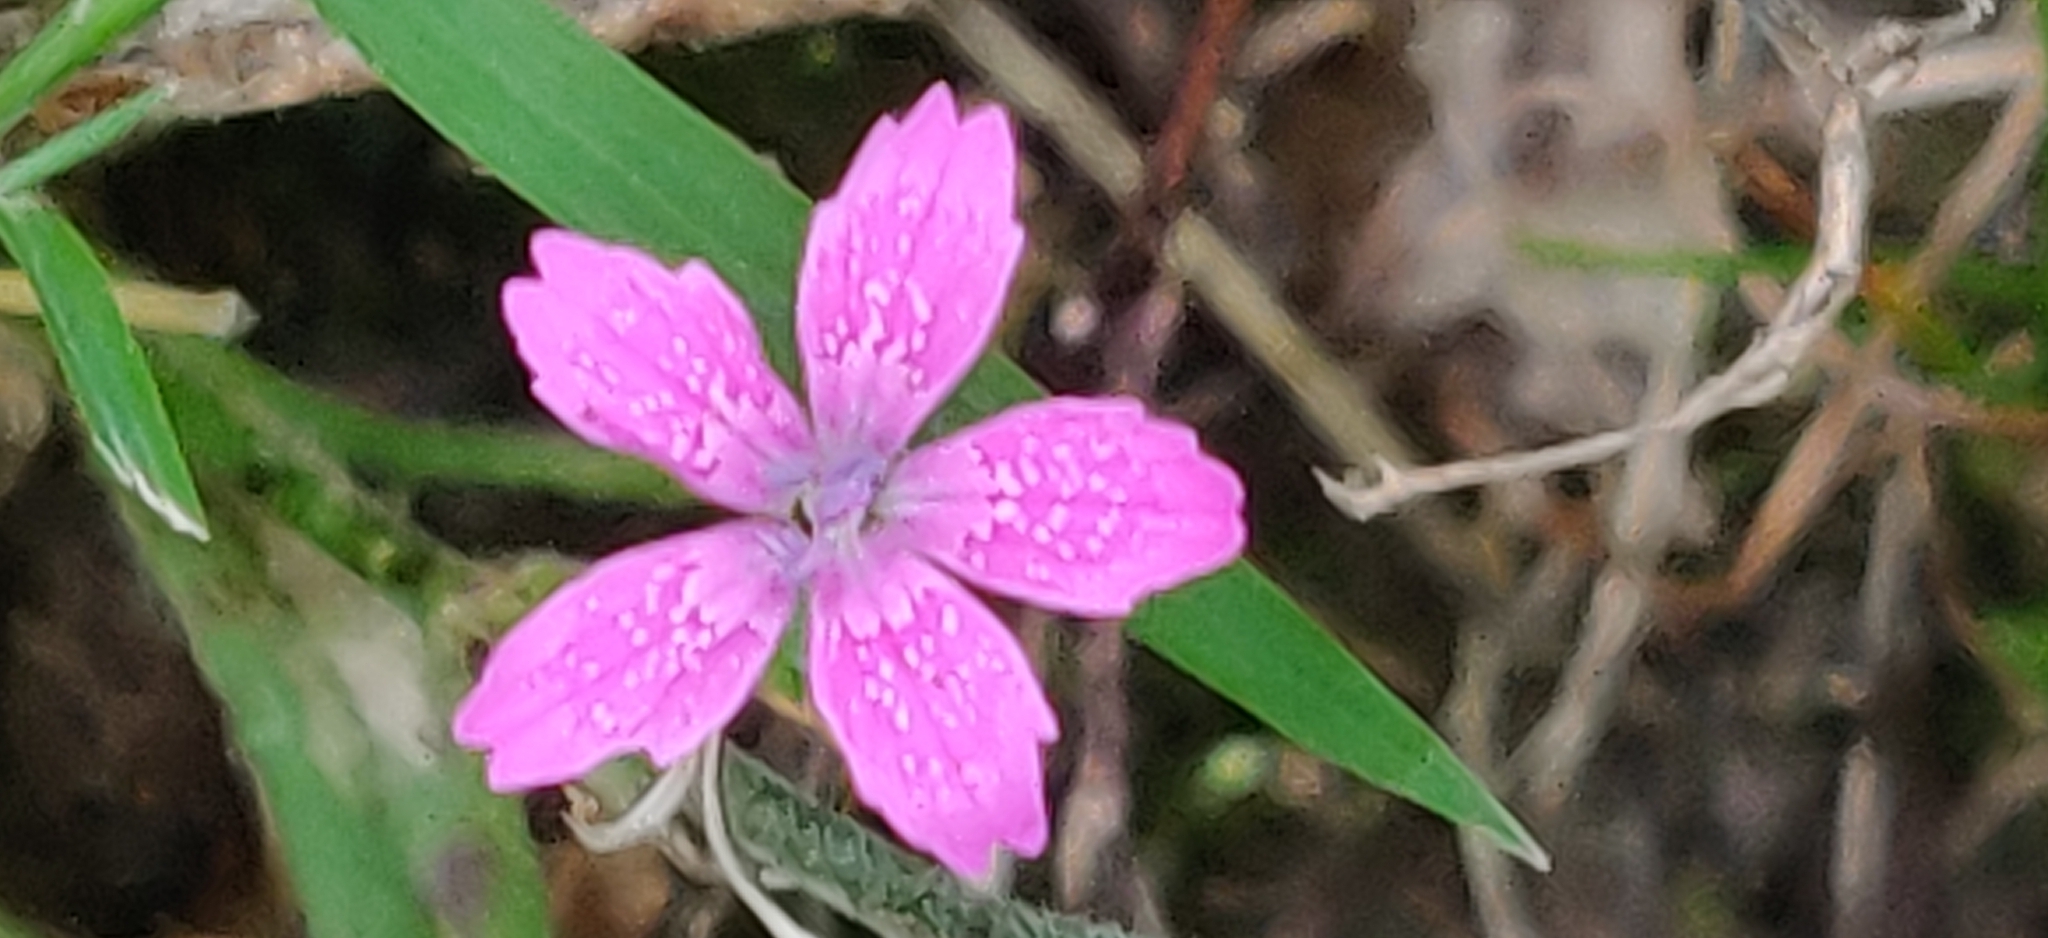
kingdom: Plantae
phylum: Tracheophyta
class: Magnoliopsida
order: Caryophyllales
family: Caryophyllaceae
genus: Dianthus
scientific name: Dianthus armeria
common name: Deptford pink
